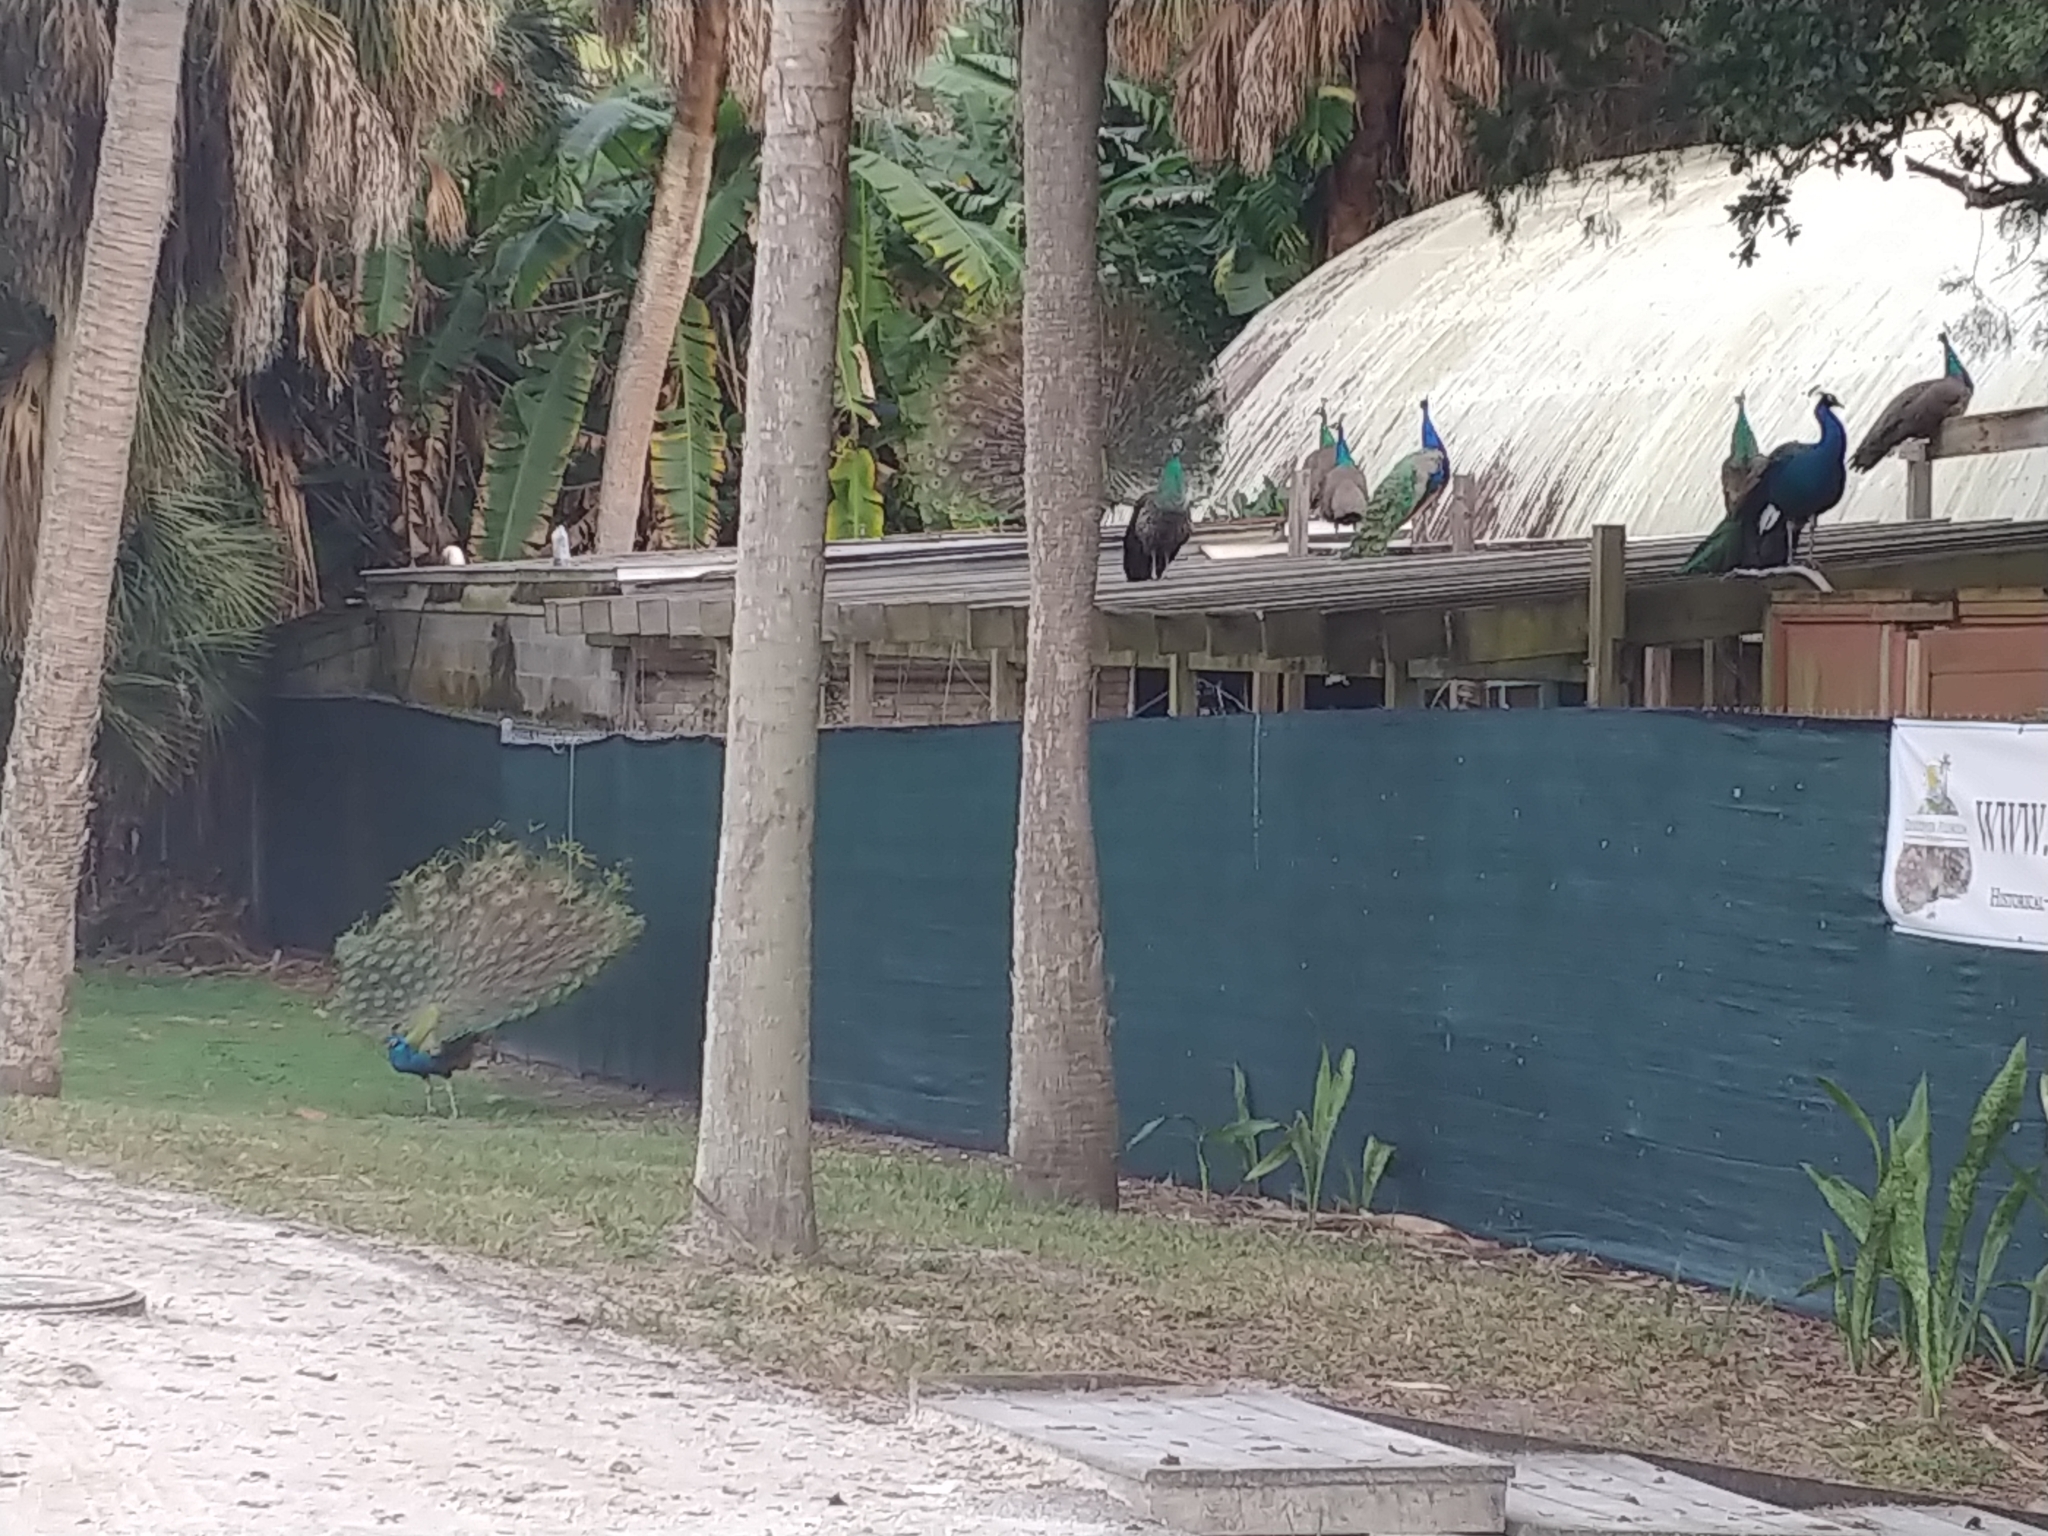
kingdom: Animalia
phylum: Chordata
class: Aves
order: Galliformes
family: Phasianidae
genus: Pavo
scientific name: Pavo cristatus
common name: Indian peafowl
